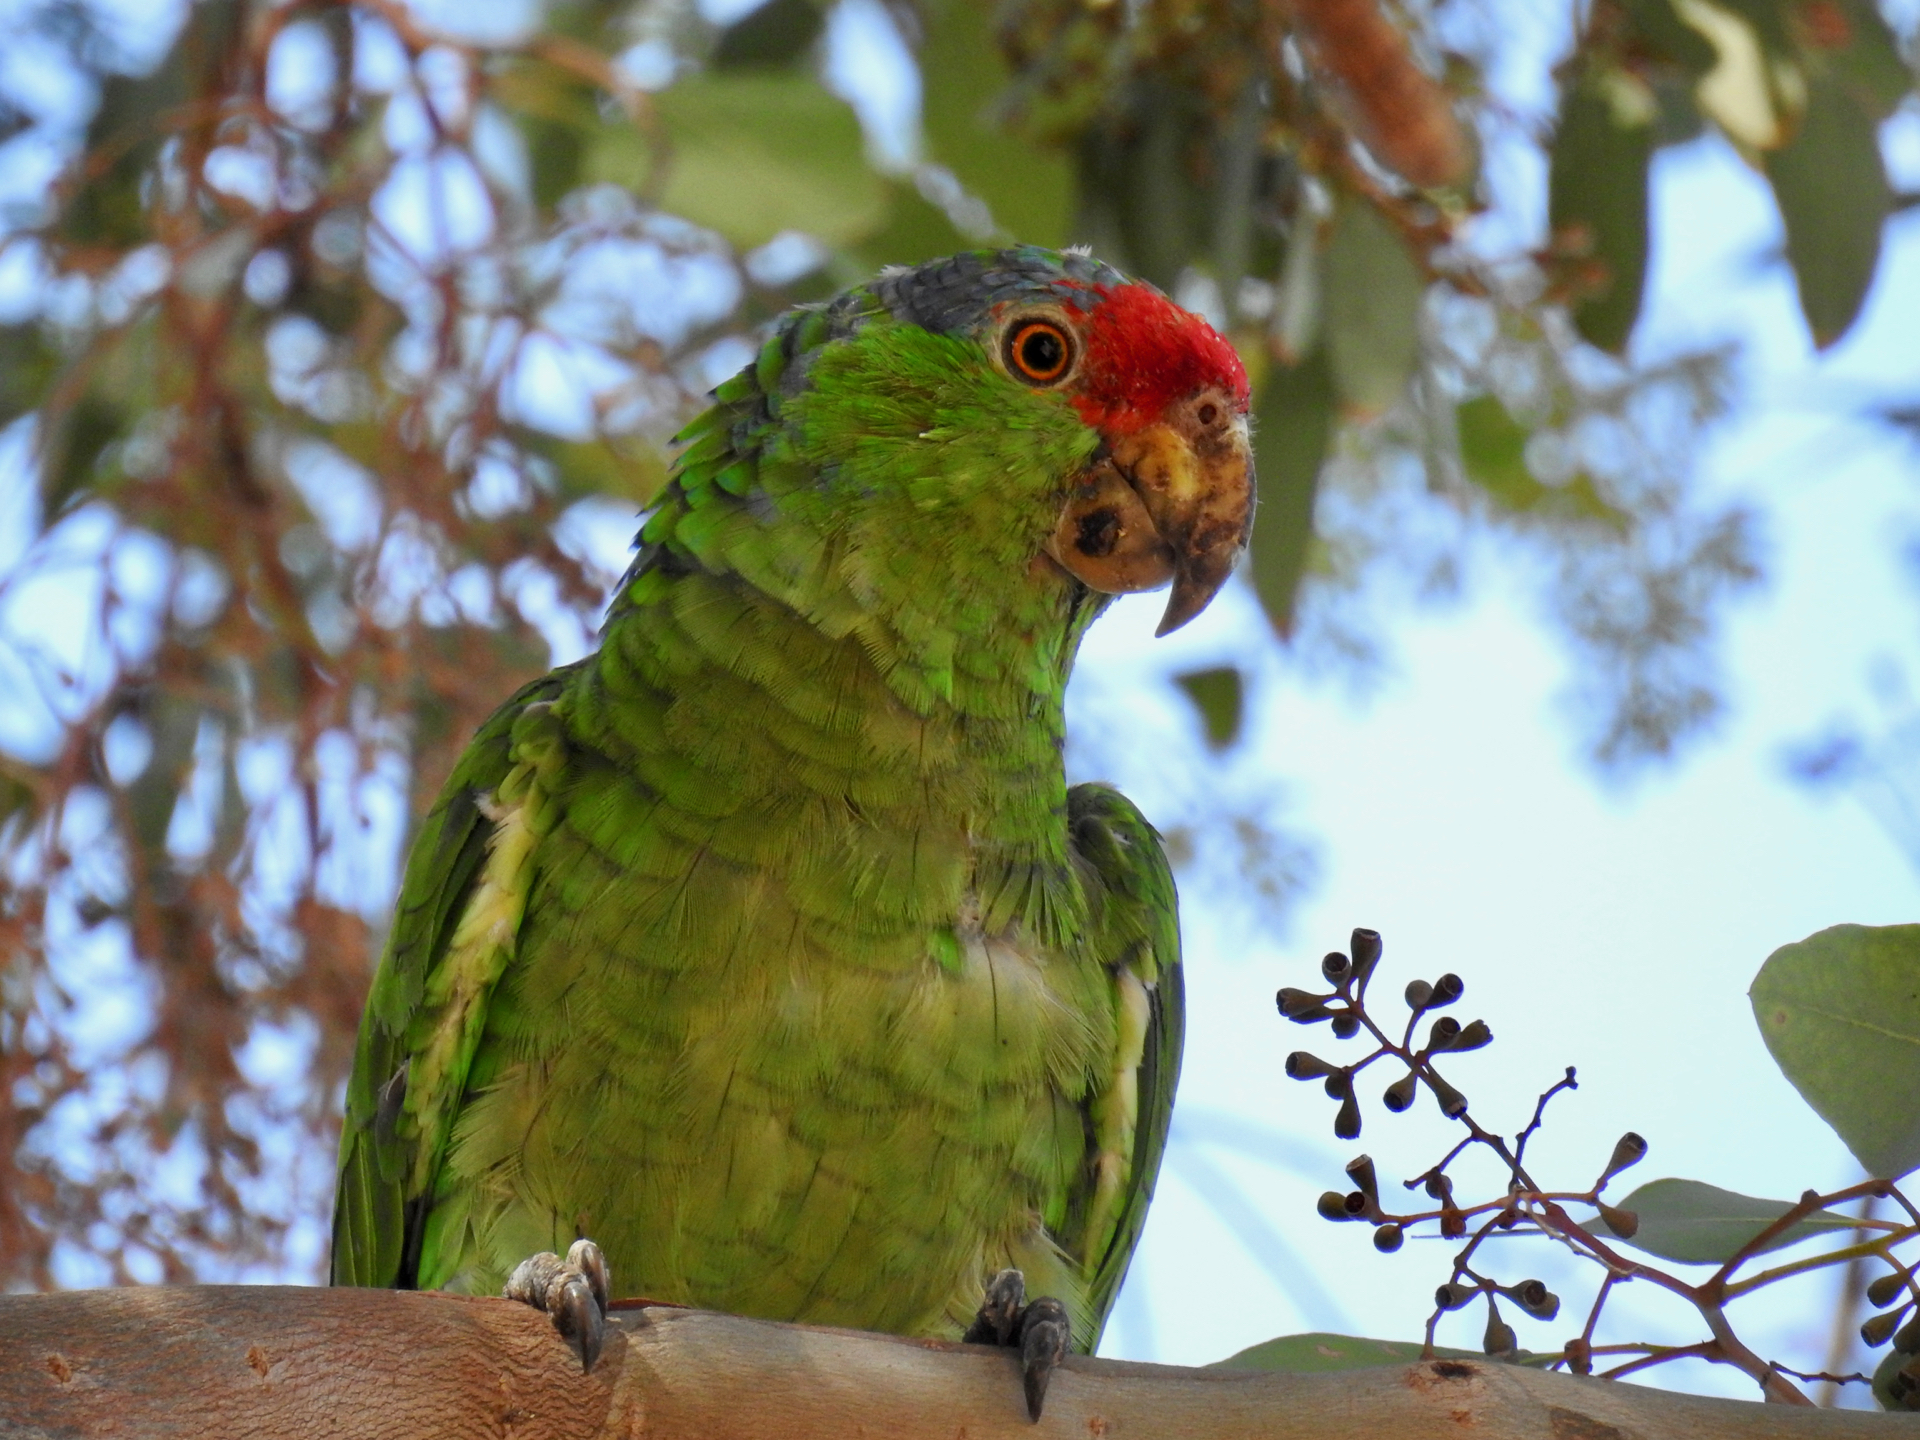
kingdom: Animalia
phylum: Chordata
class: Aves
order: Psittaciformes
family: Psittacidae
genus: Amazona
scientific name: Amazona viridigenalis
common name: Red-crowned amazon
